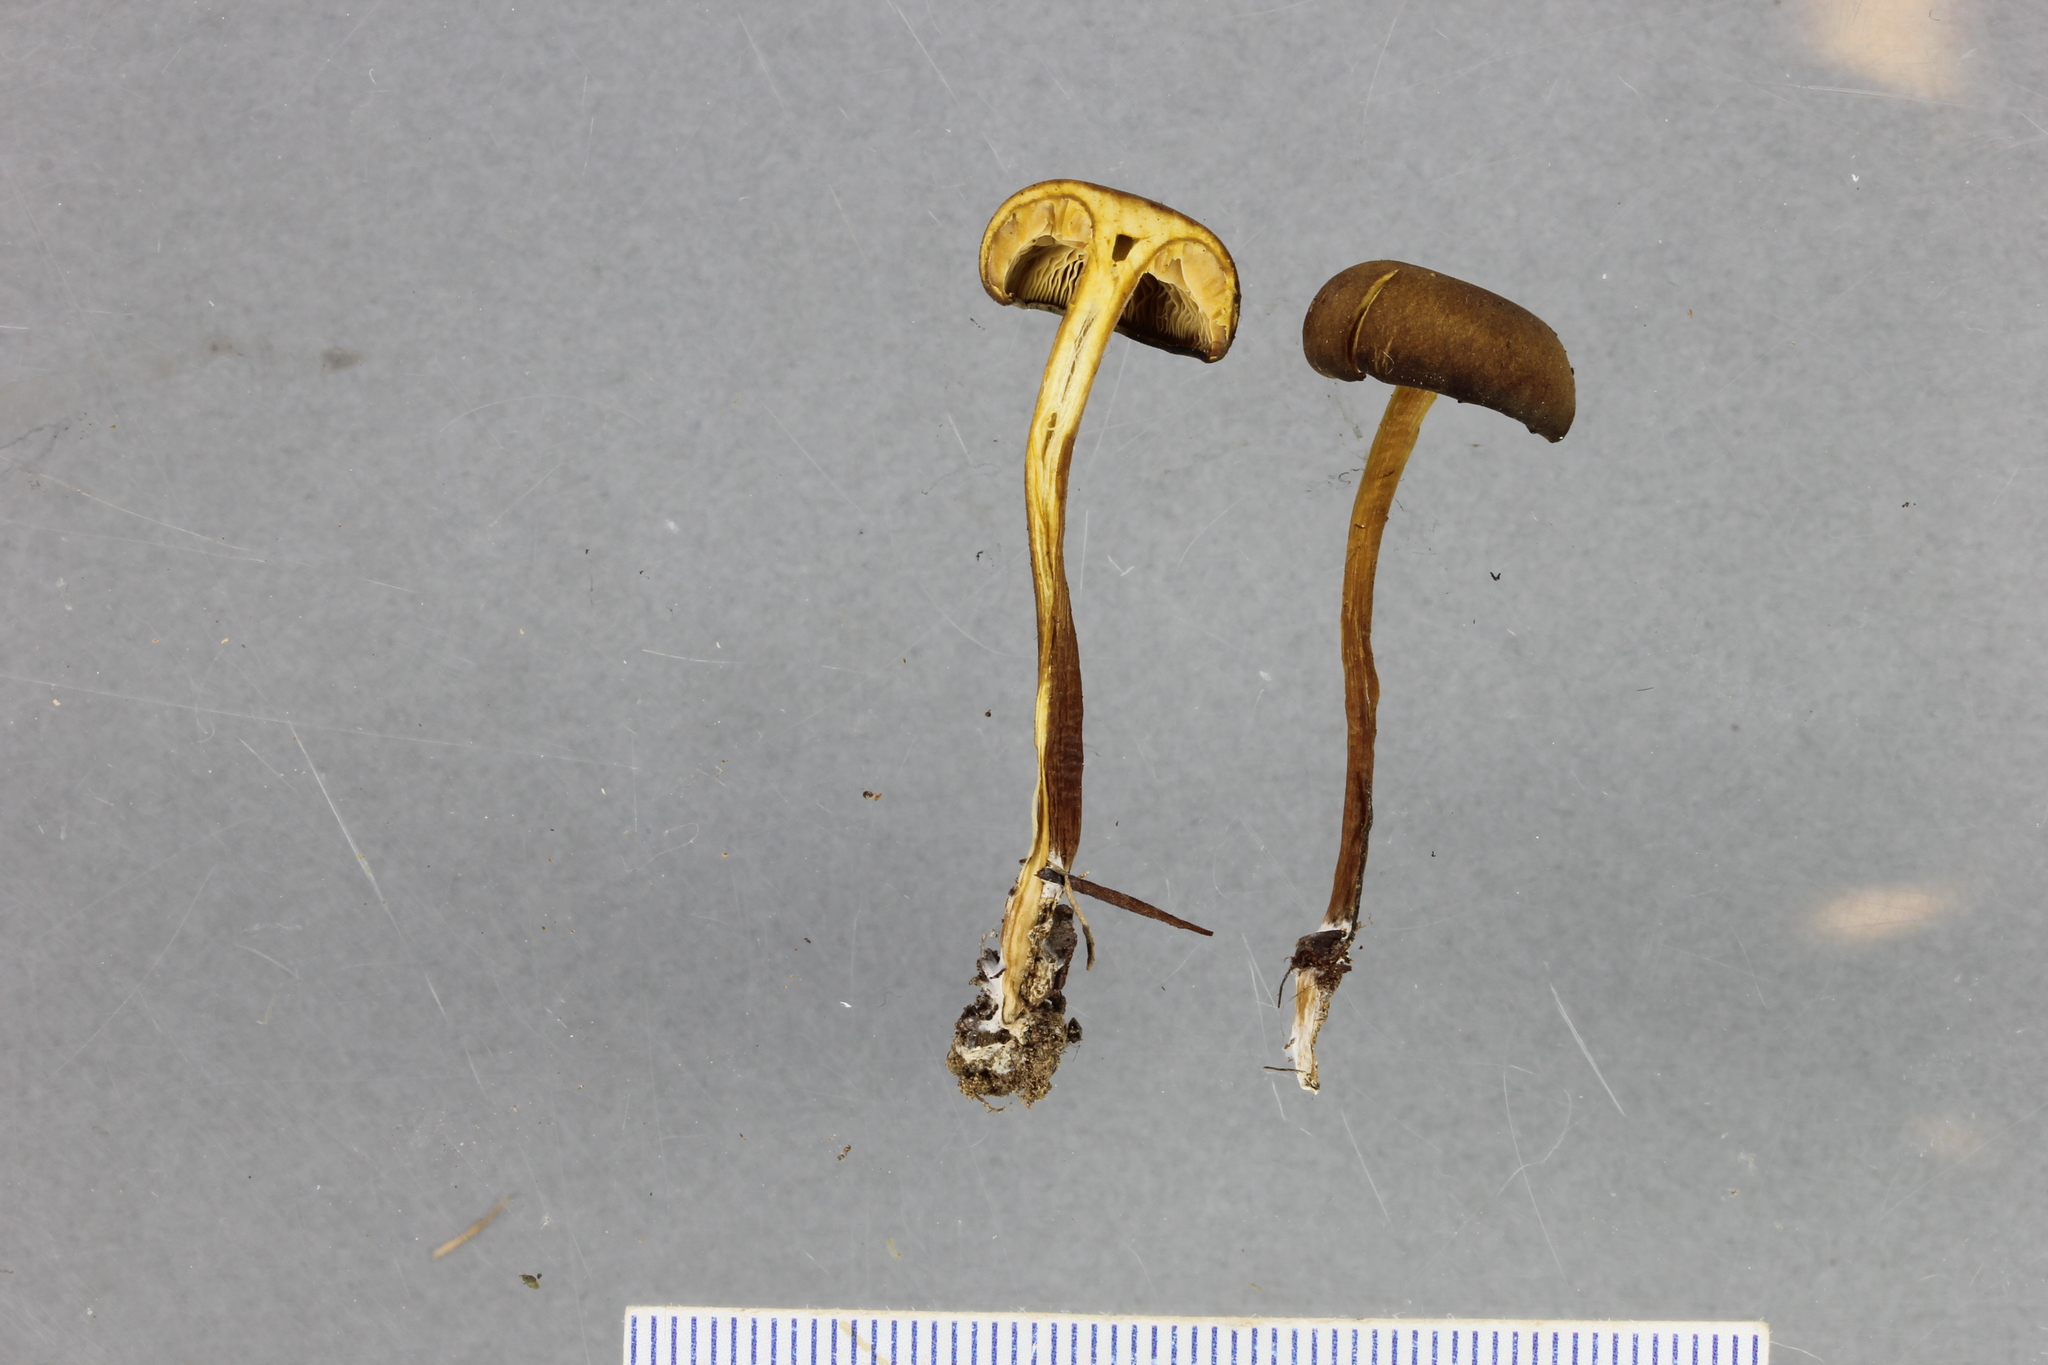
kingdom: Fungi
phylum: Basidiomycota
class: Agaricomycetes
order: Agaricales
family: Callistosporiaceae
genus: Callistosporium
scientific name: Callistosporium
